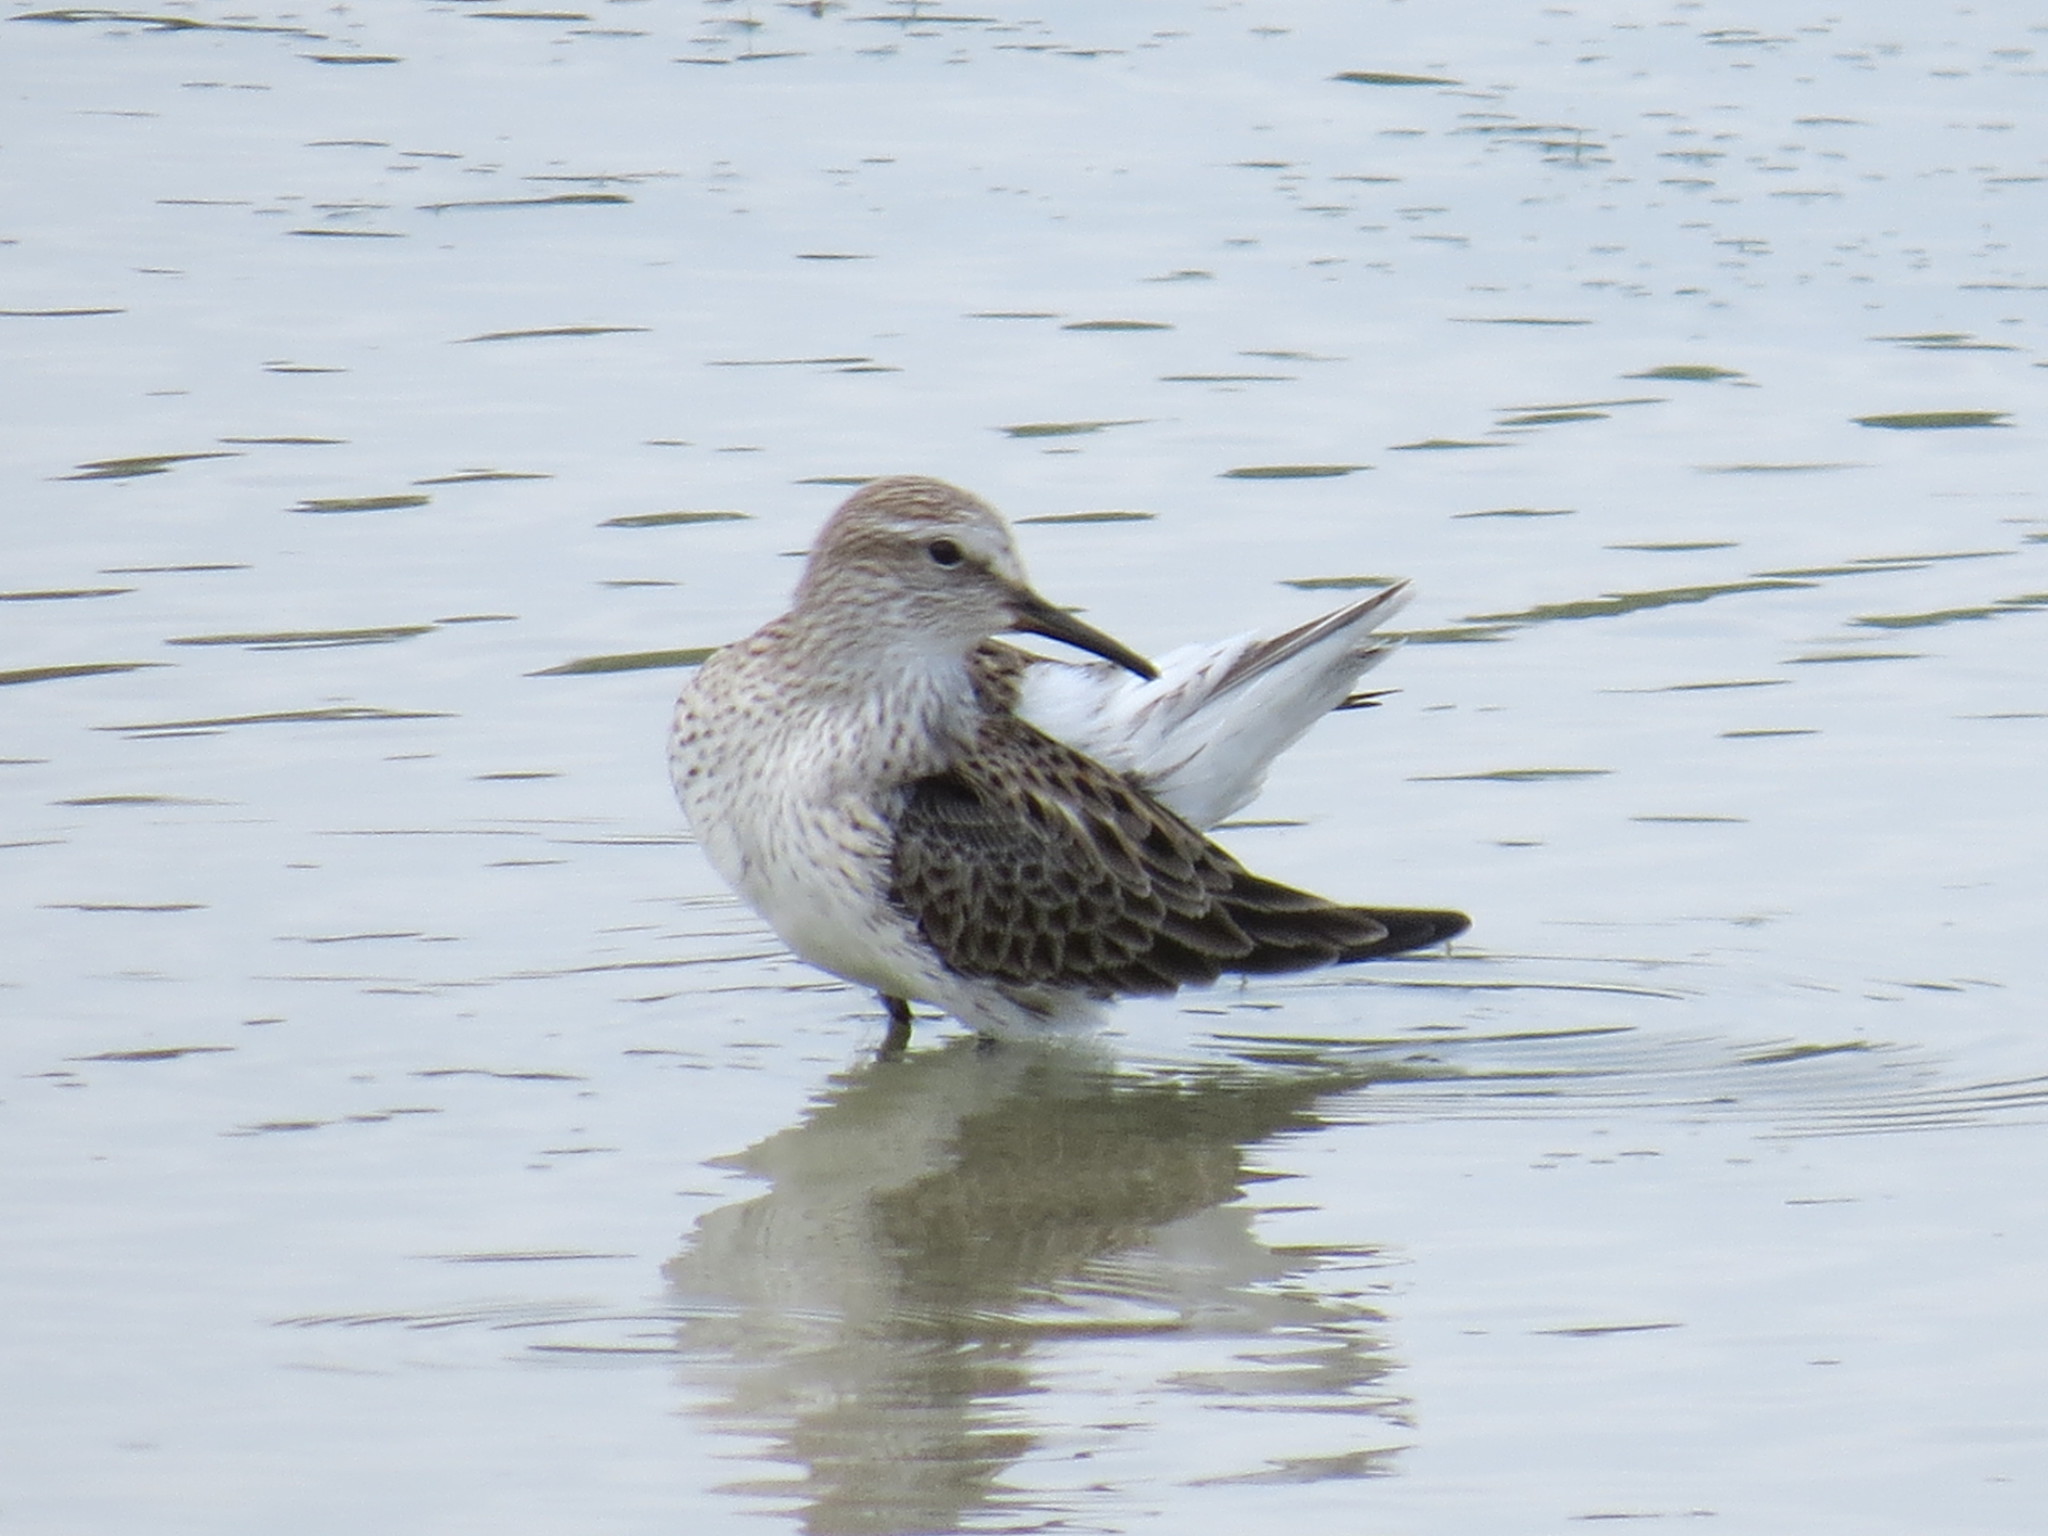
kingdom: Animalia
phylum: Chordata
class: Aves
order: Charadriiformes
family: Scolopacidae
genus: Calidris
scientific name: Calidris fuscicollis
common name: White-rumped sandpiper
